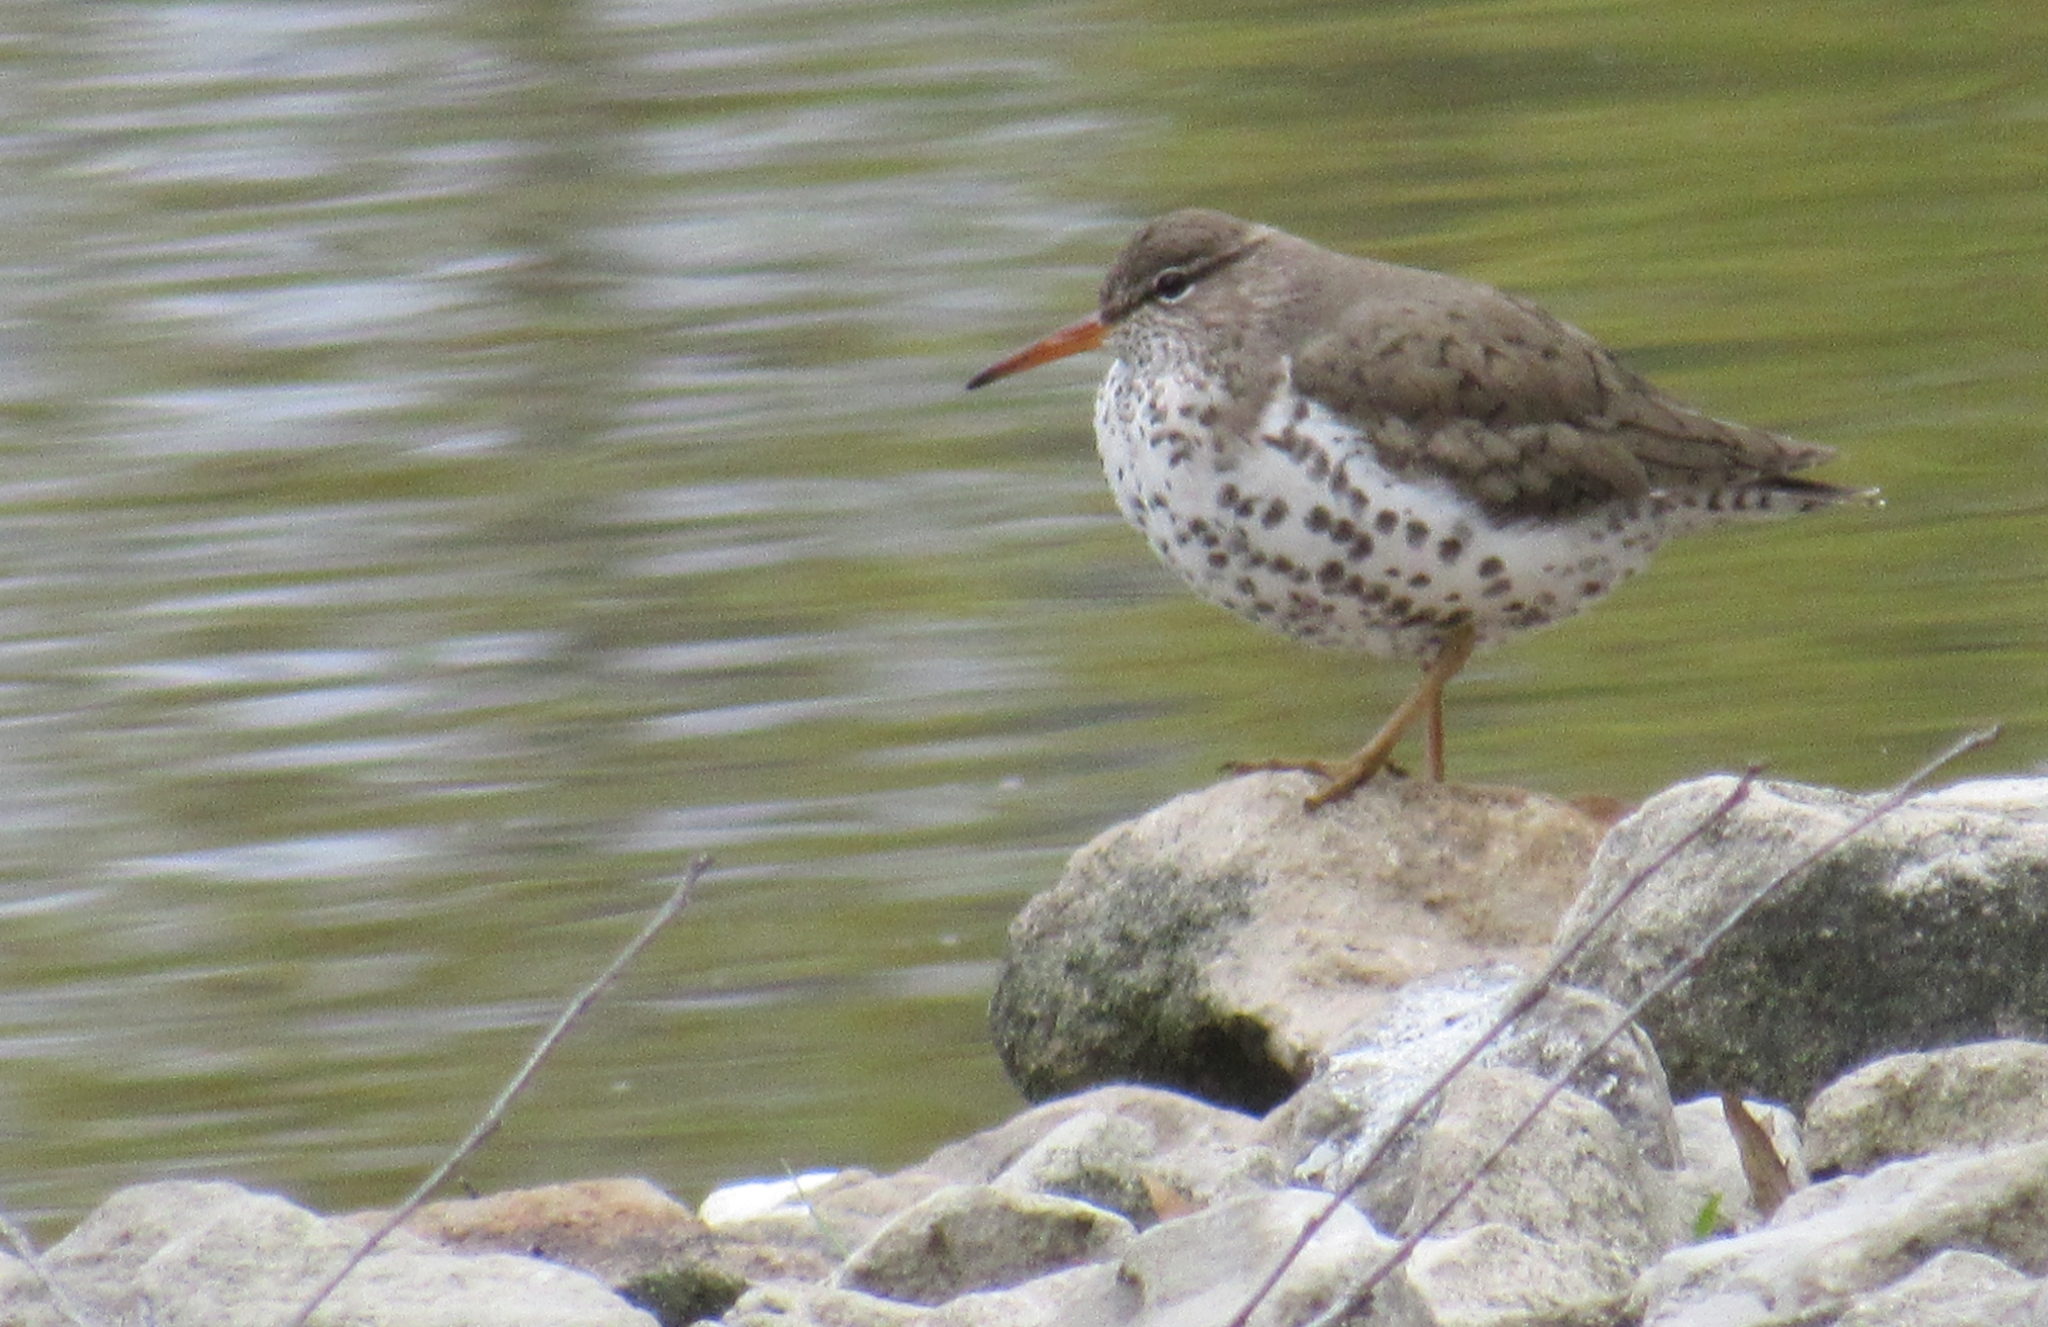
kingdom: Animalia
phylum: Chordata
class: Aves
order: Charadriiformes
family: Scolopacidae
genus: Actitis
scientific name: Actitis macularius
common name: Spotted sandpiper
